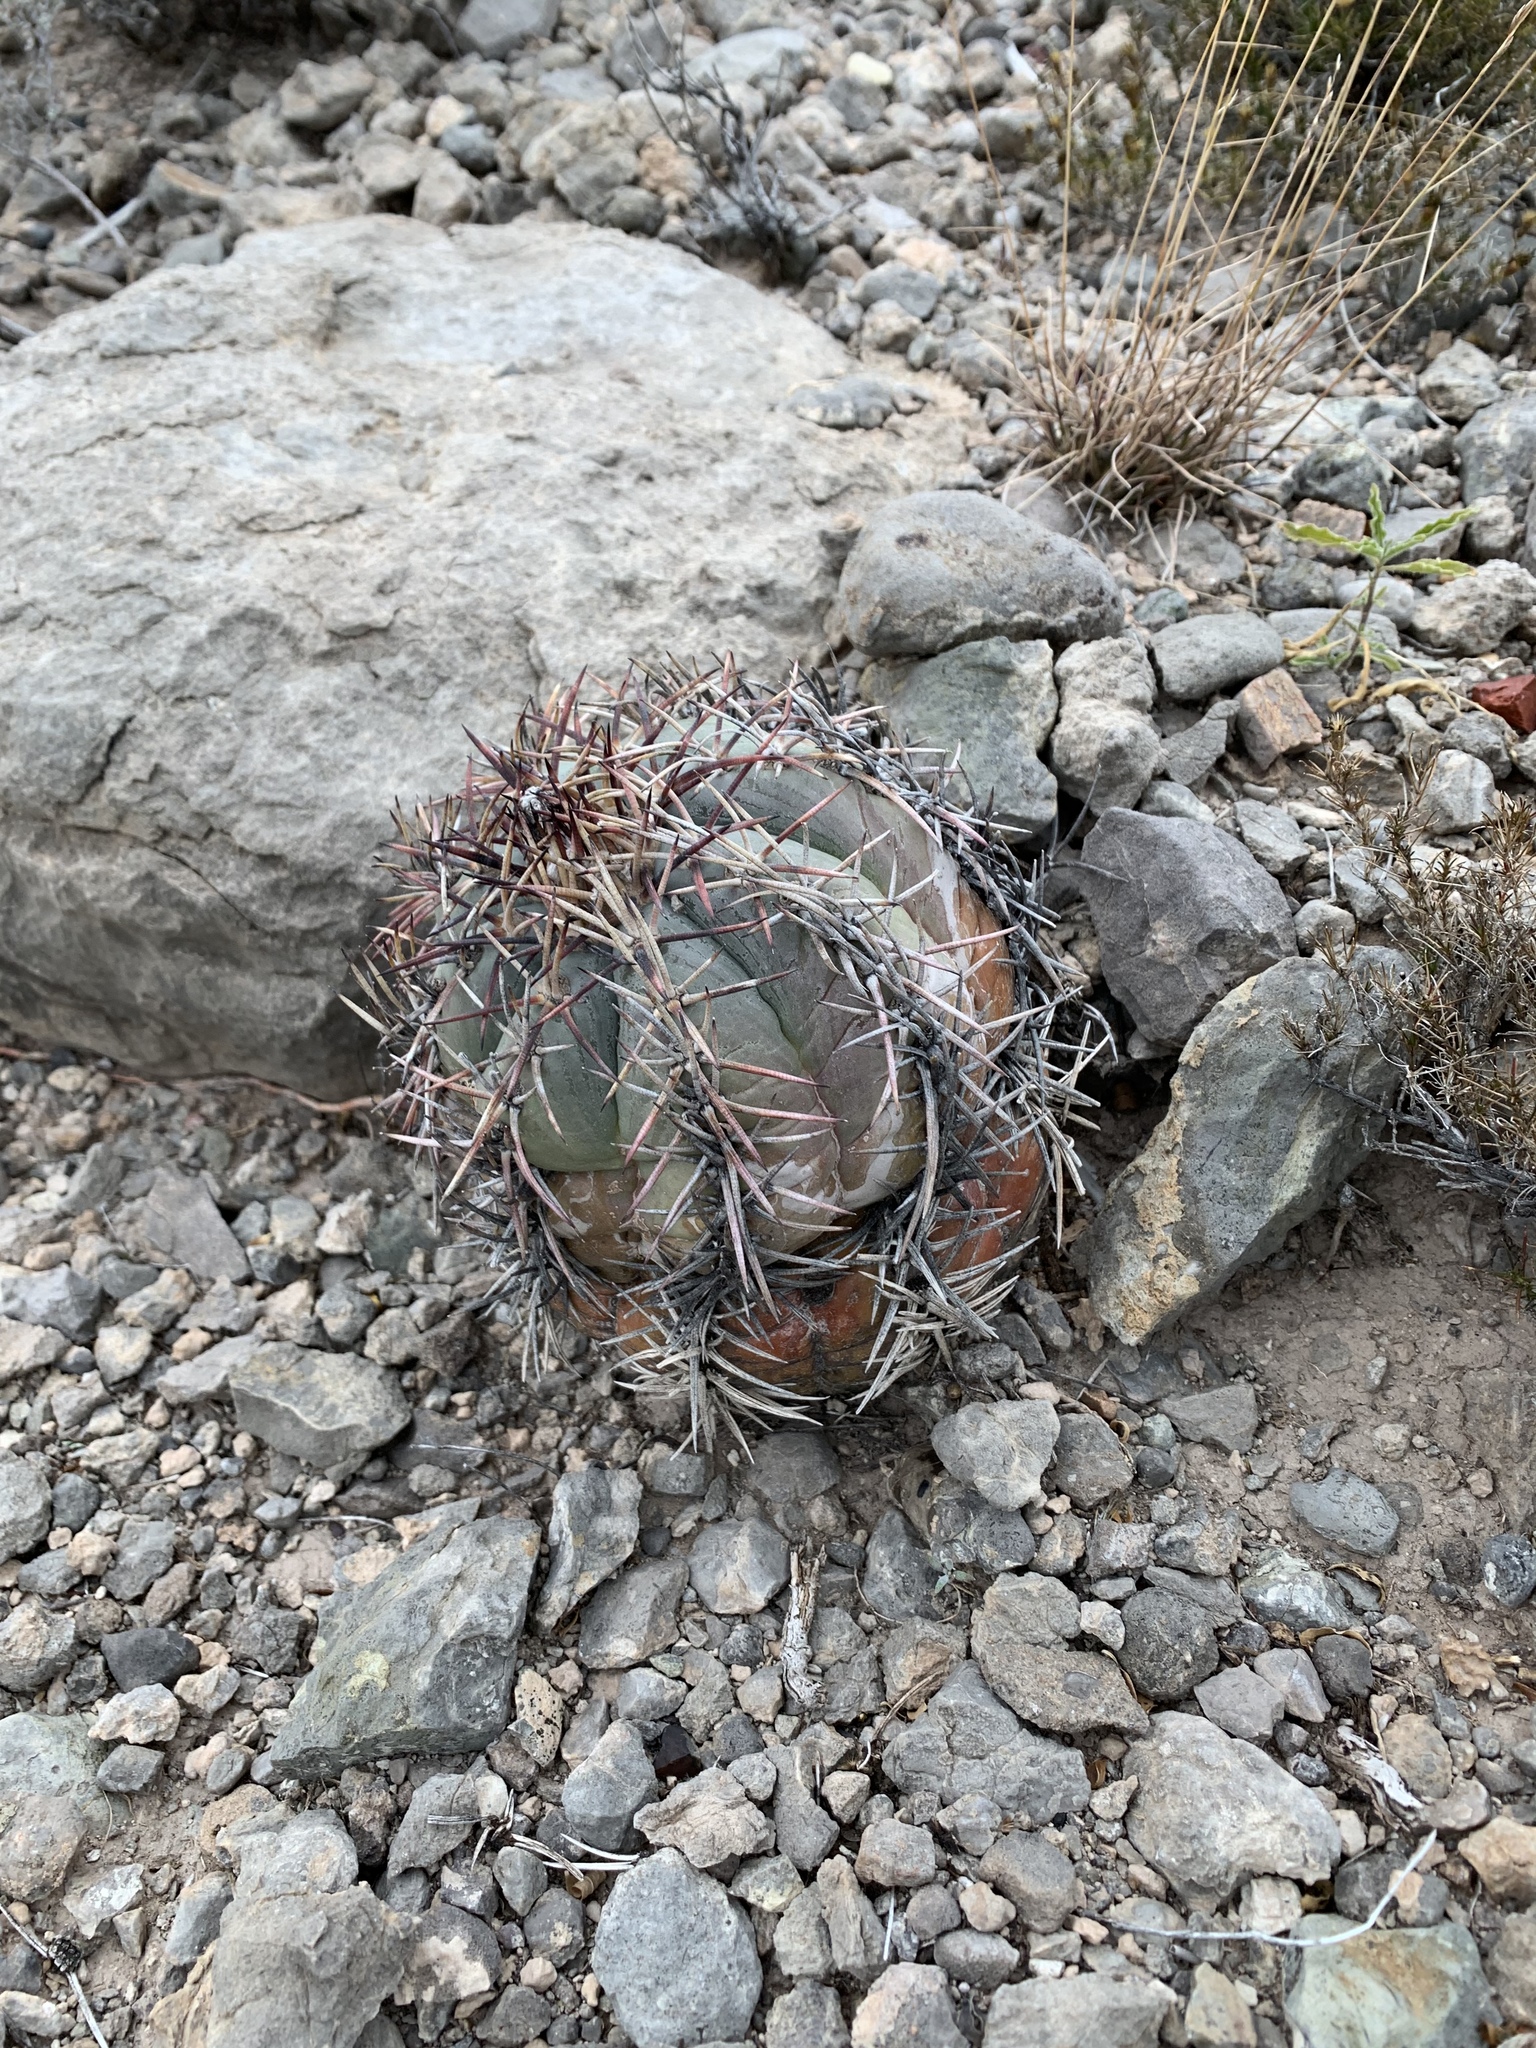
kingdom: Plantae
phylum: Tracheophyta
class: Magnoliopsida
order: Caryophyllales
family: Cactaceae
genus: Echinocactus
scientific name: Echinocactus horizonthalonius
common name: Devilshead
